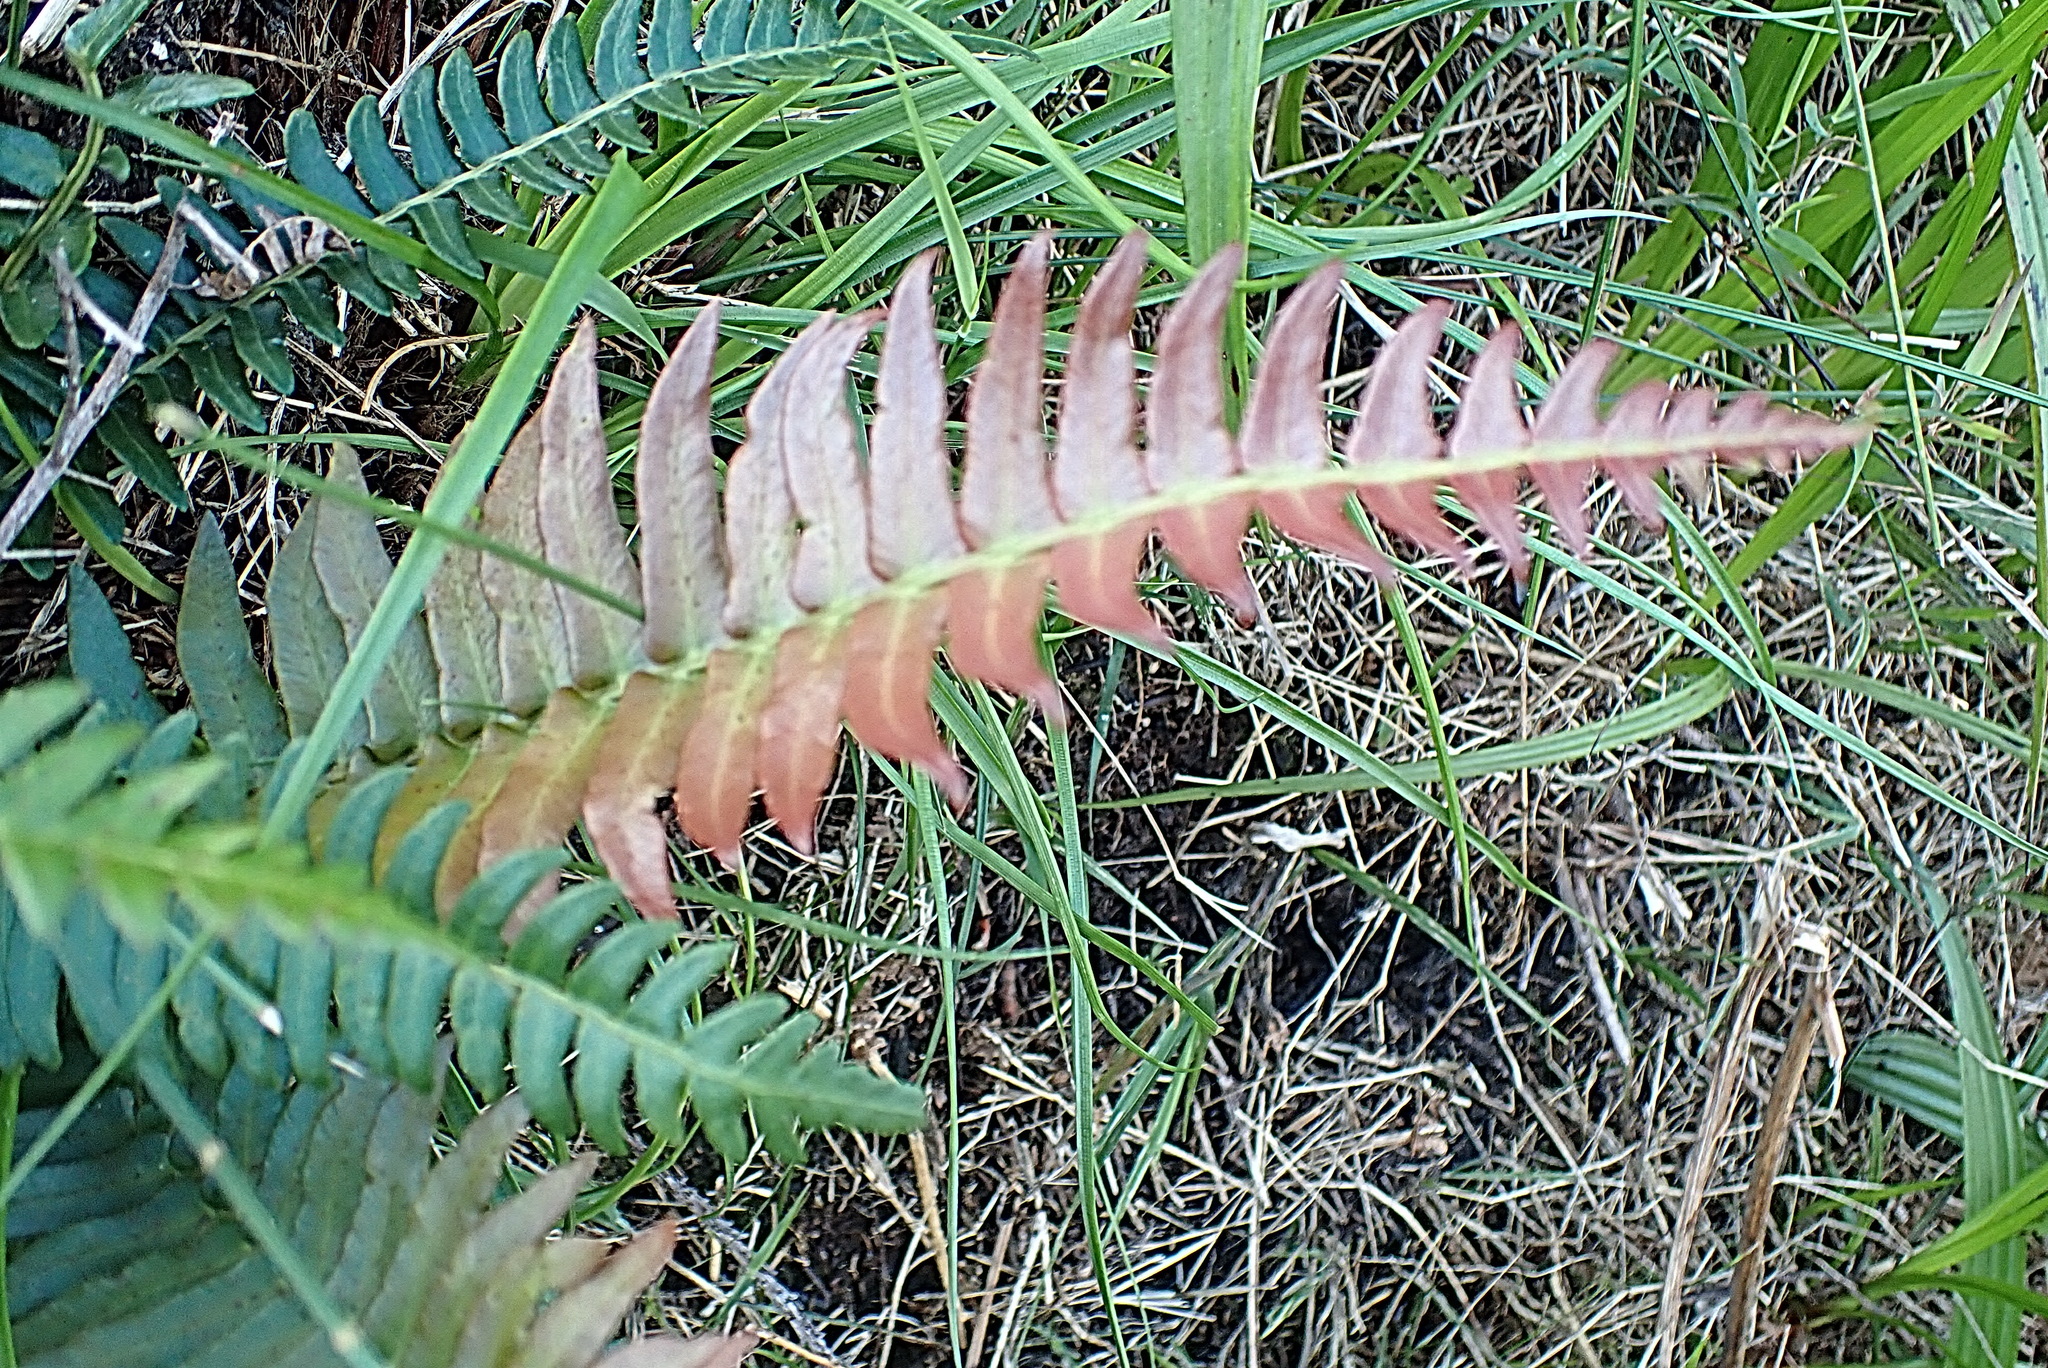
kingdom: Plantae
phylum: Tracheophyta
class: Polypodiopsida
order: Polypodiales
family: Blechnaceae
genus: Blechnum
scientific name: Blechnum punctulatum
